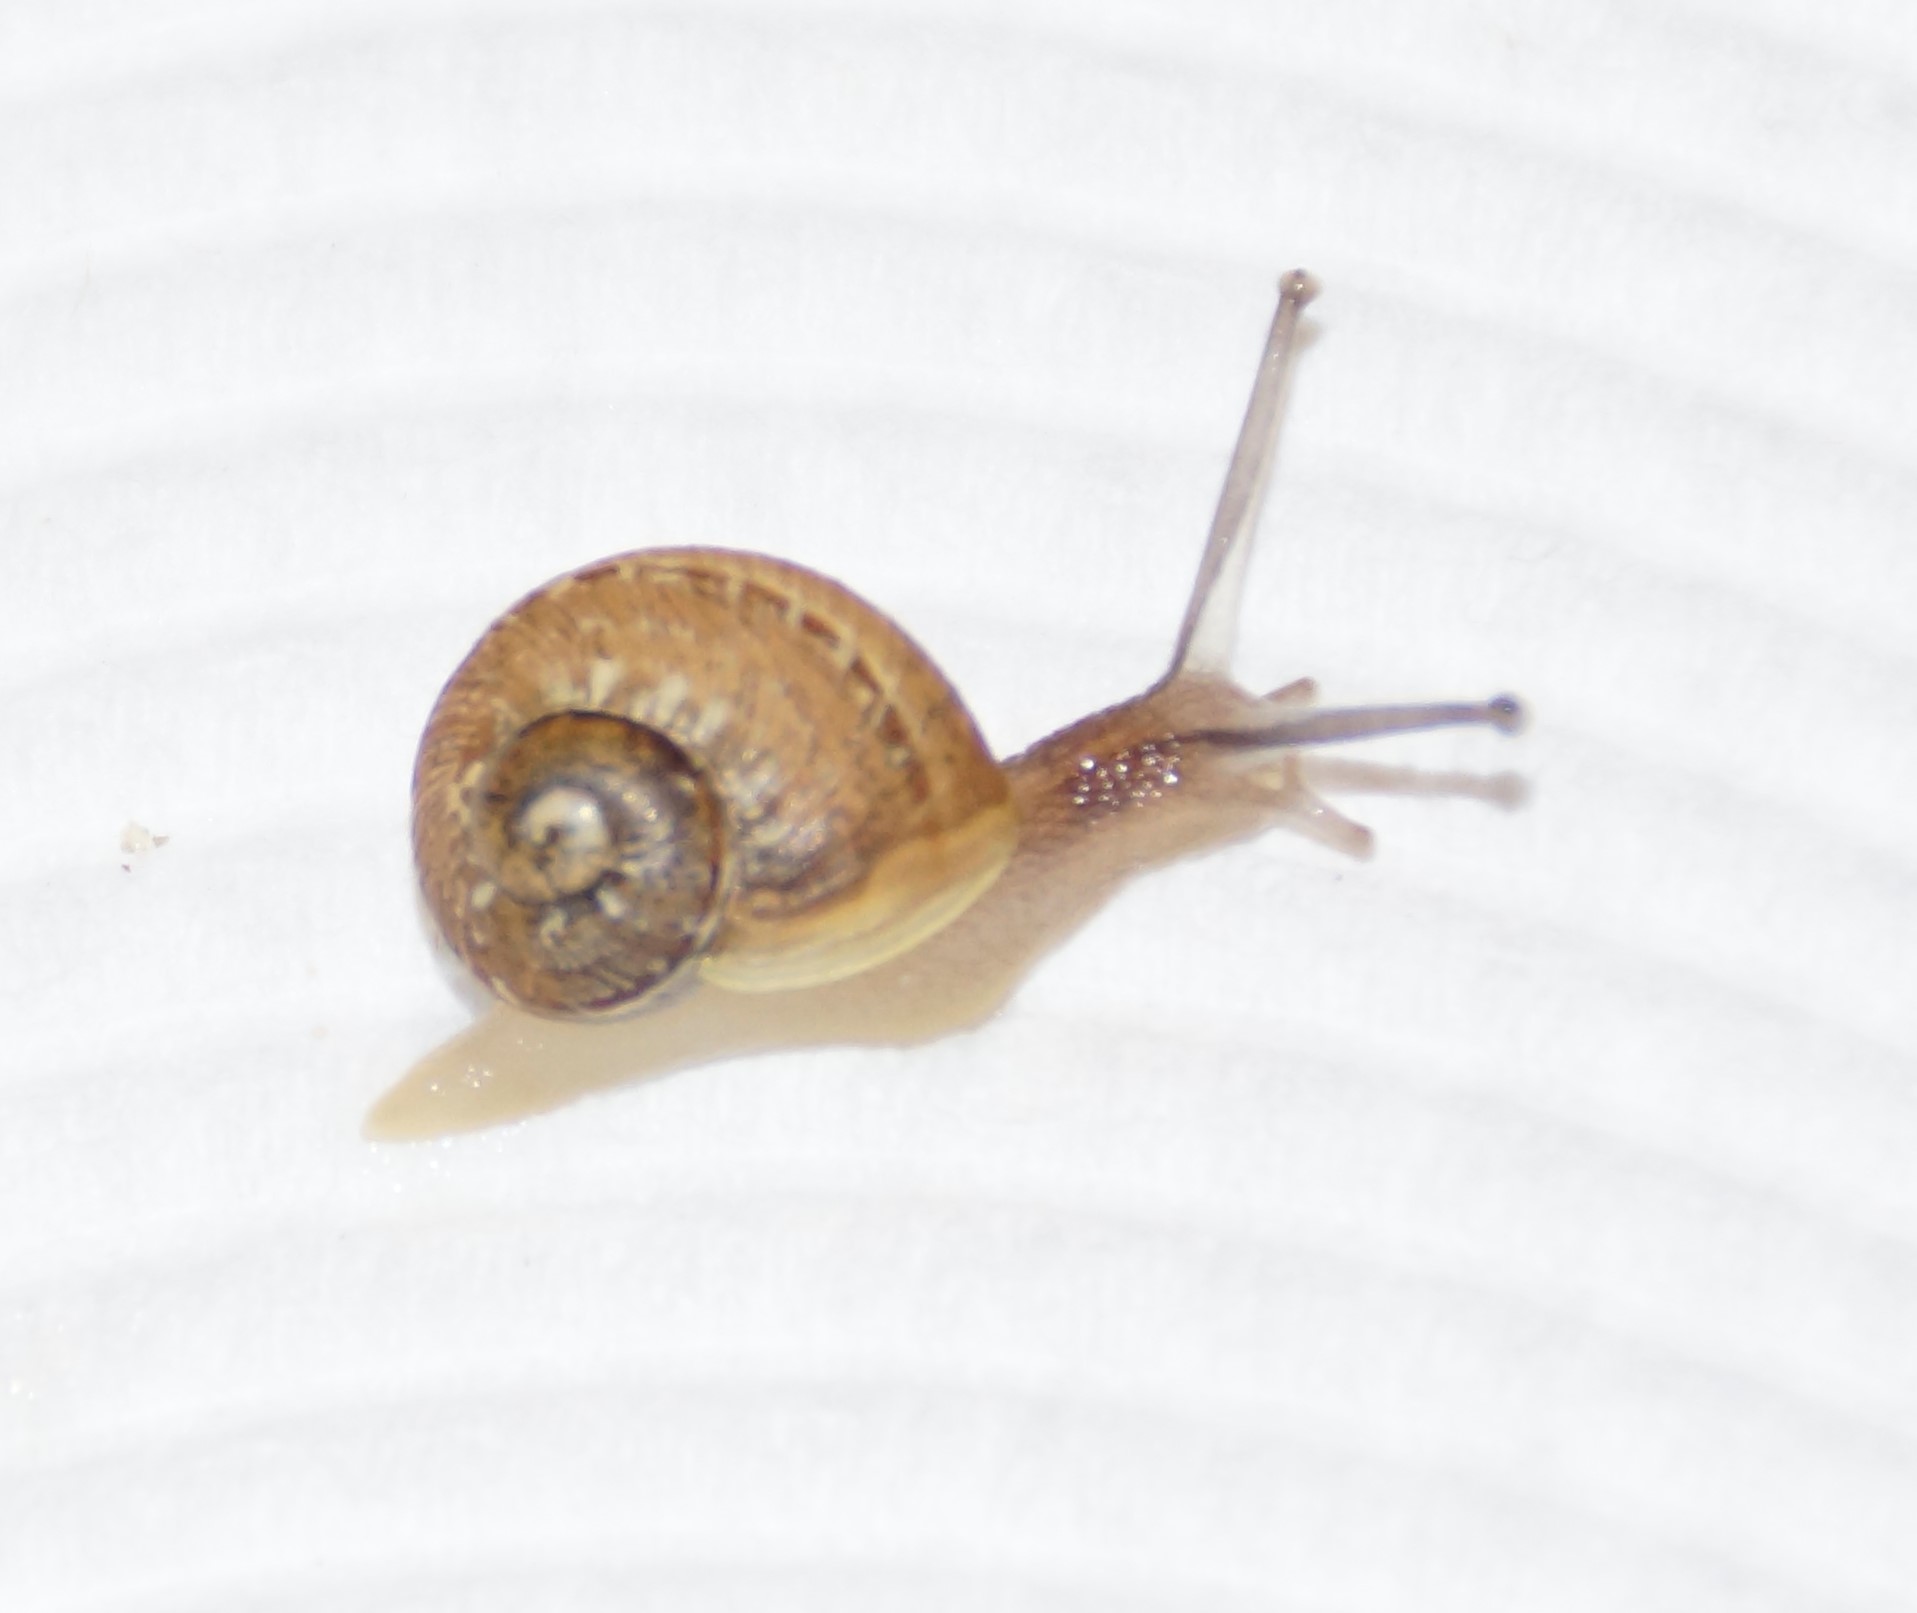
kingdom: Animalia
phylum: Mollusca
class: Gastropoda
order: Stylommatophora
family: Helicidae
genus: Cornu
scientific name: Cornu aspersum
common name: Brown garden snail
